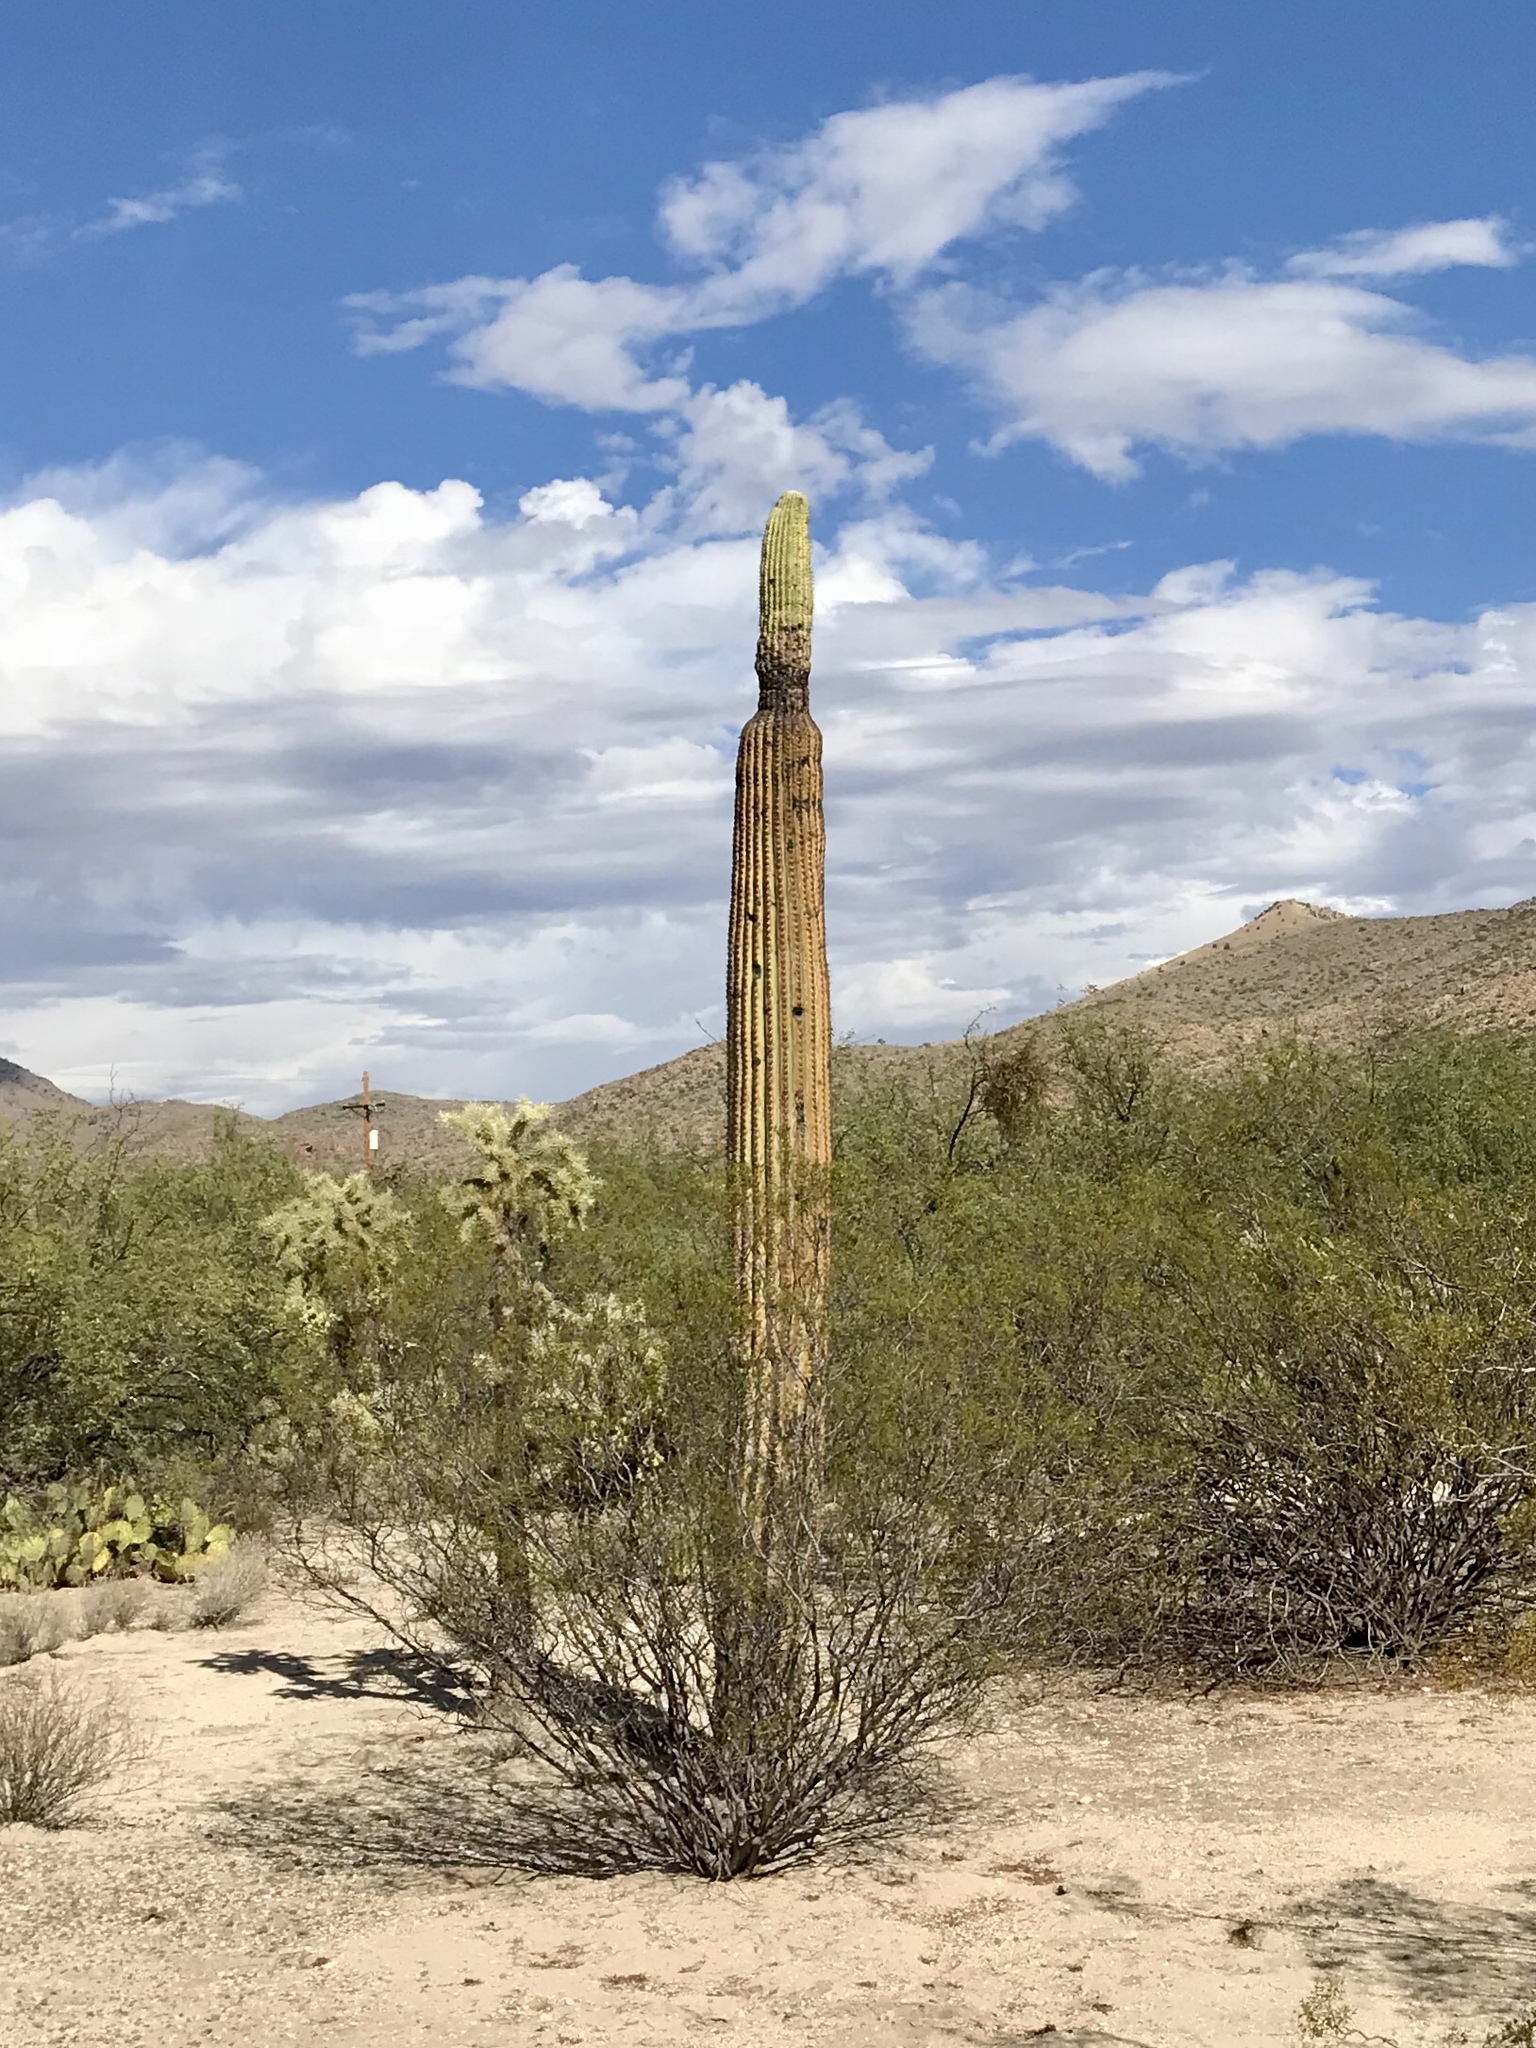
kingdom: Plantae
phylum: Tracheophyta
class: Magnoliopsida
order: Caryophyllales
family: Cactaceae
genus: Carnegiea
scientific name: Carnegiea gigantea
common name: Saguaro
